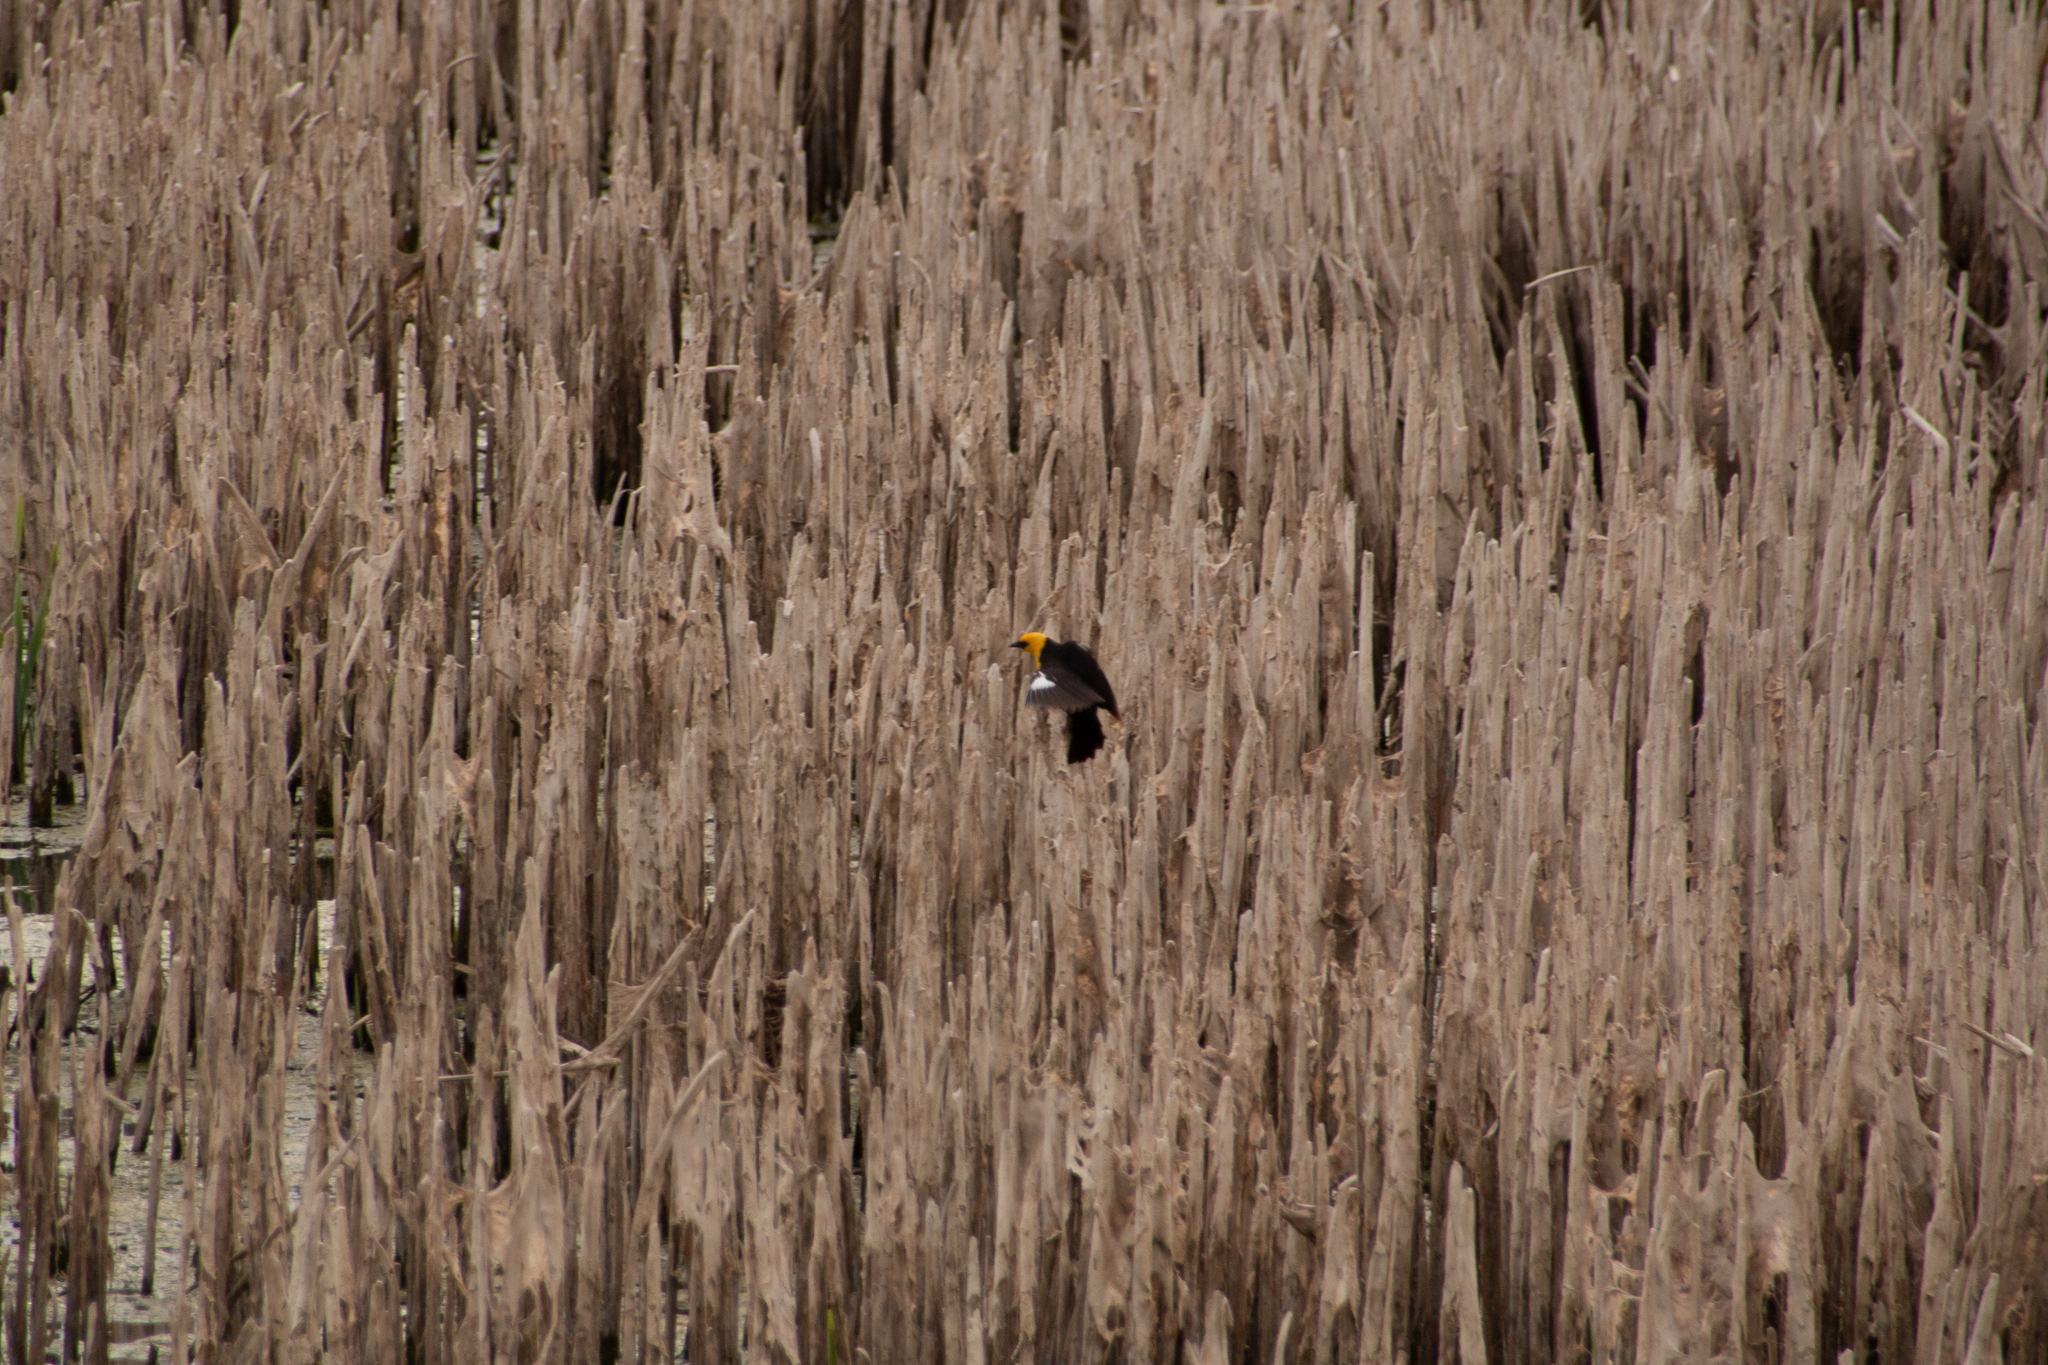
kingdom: Animalia
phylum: Chordata
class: Aves
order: Passeriformes
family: Icteridae
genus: Xanthocephalus
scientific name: Xanthocephalus xanthocephalus
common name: Yellow-headed blackbird
